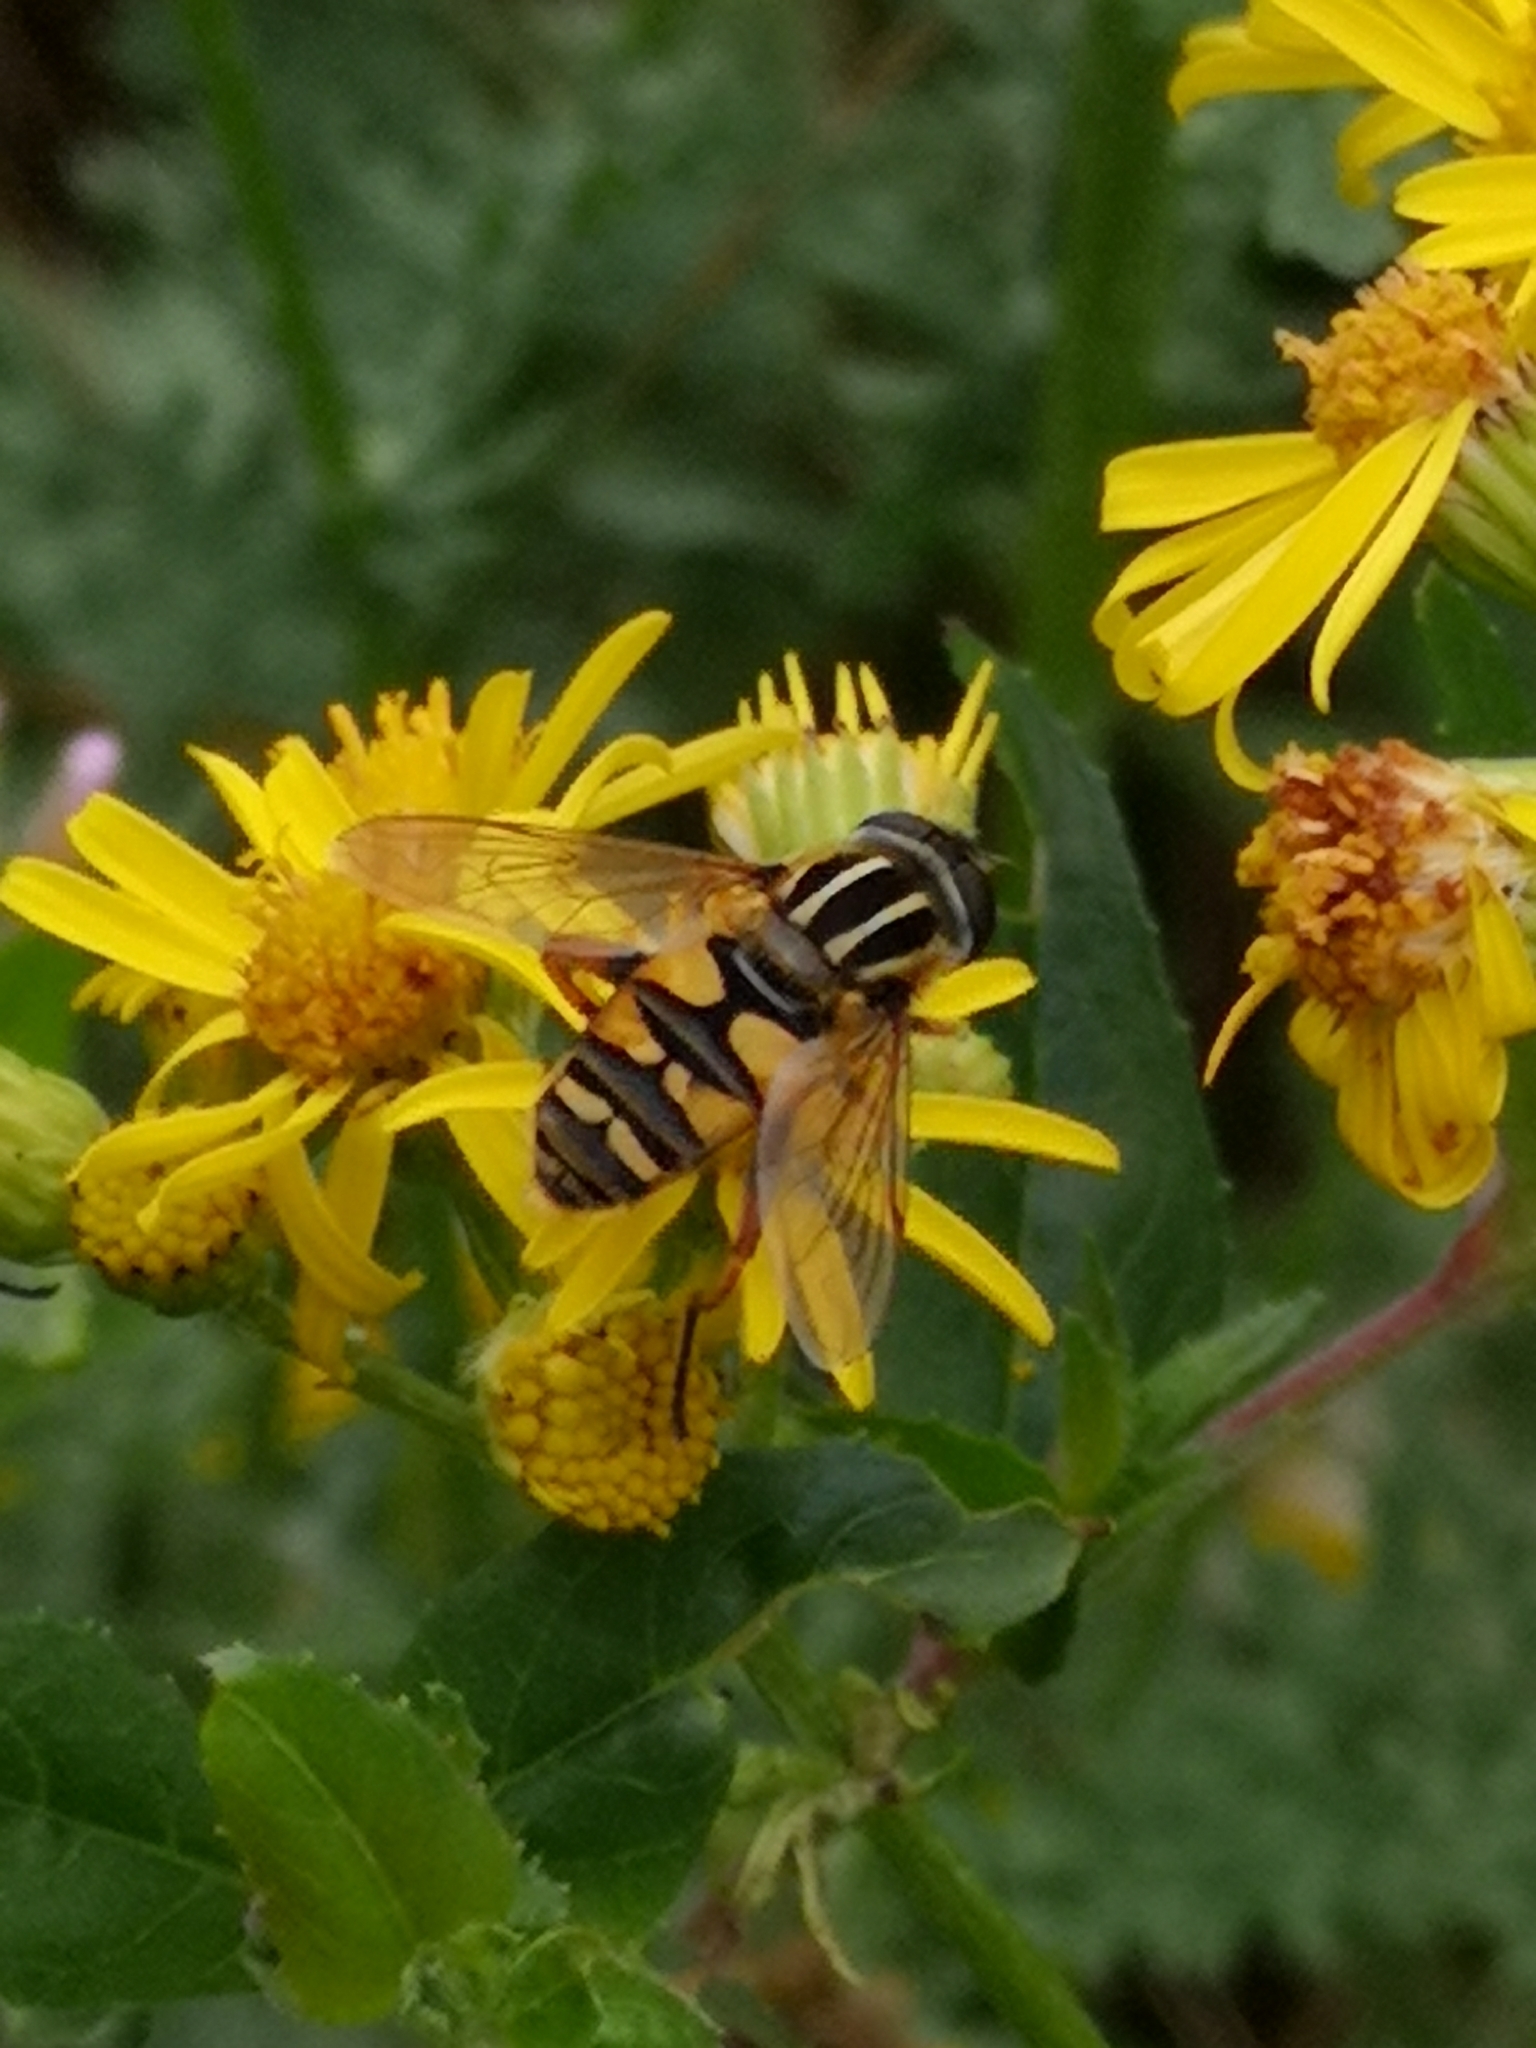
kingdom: Animalia
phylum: Arthropoda
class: Insecta
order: Diptera
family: Syrphidae
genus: Helophilus
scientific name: Helophilus pendulus
